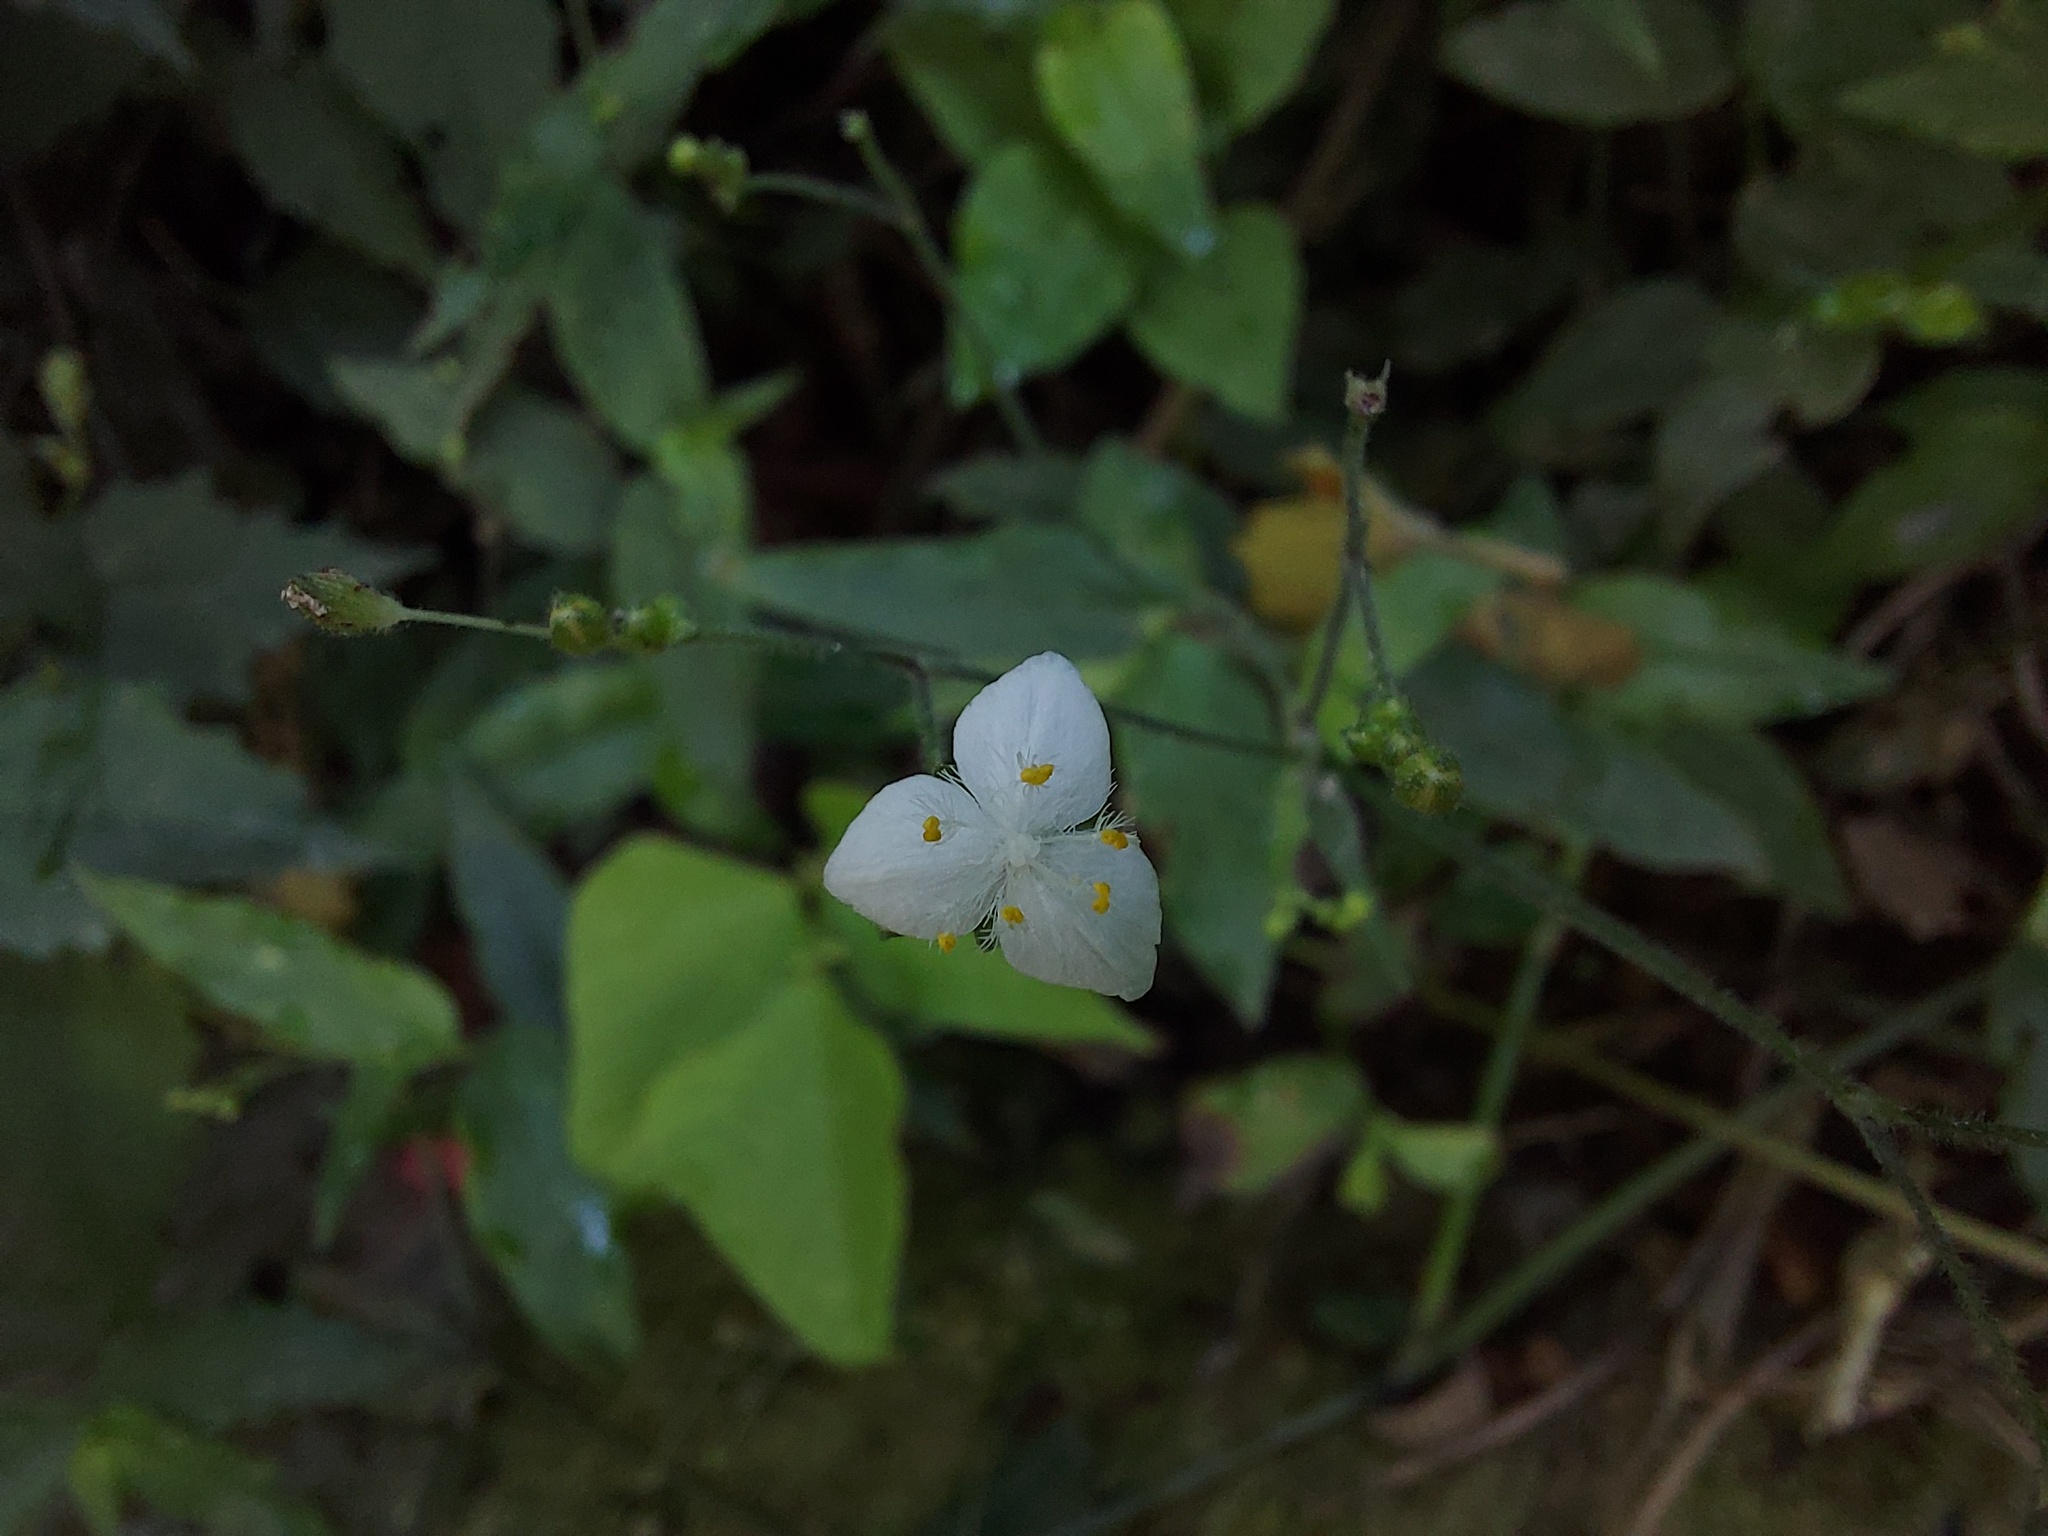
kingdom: Plantae
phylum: Tracheophyta
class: Liliopsida
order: Commelinales
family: Commelinaceae
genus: Gibasis
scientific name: Gibasis pellucida
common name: Dotted bridalveil
